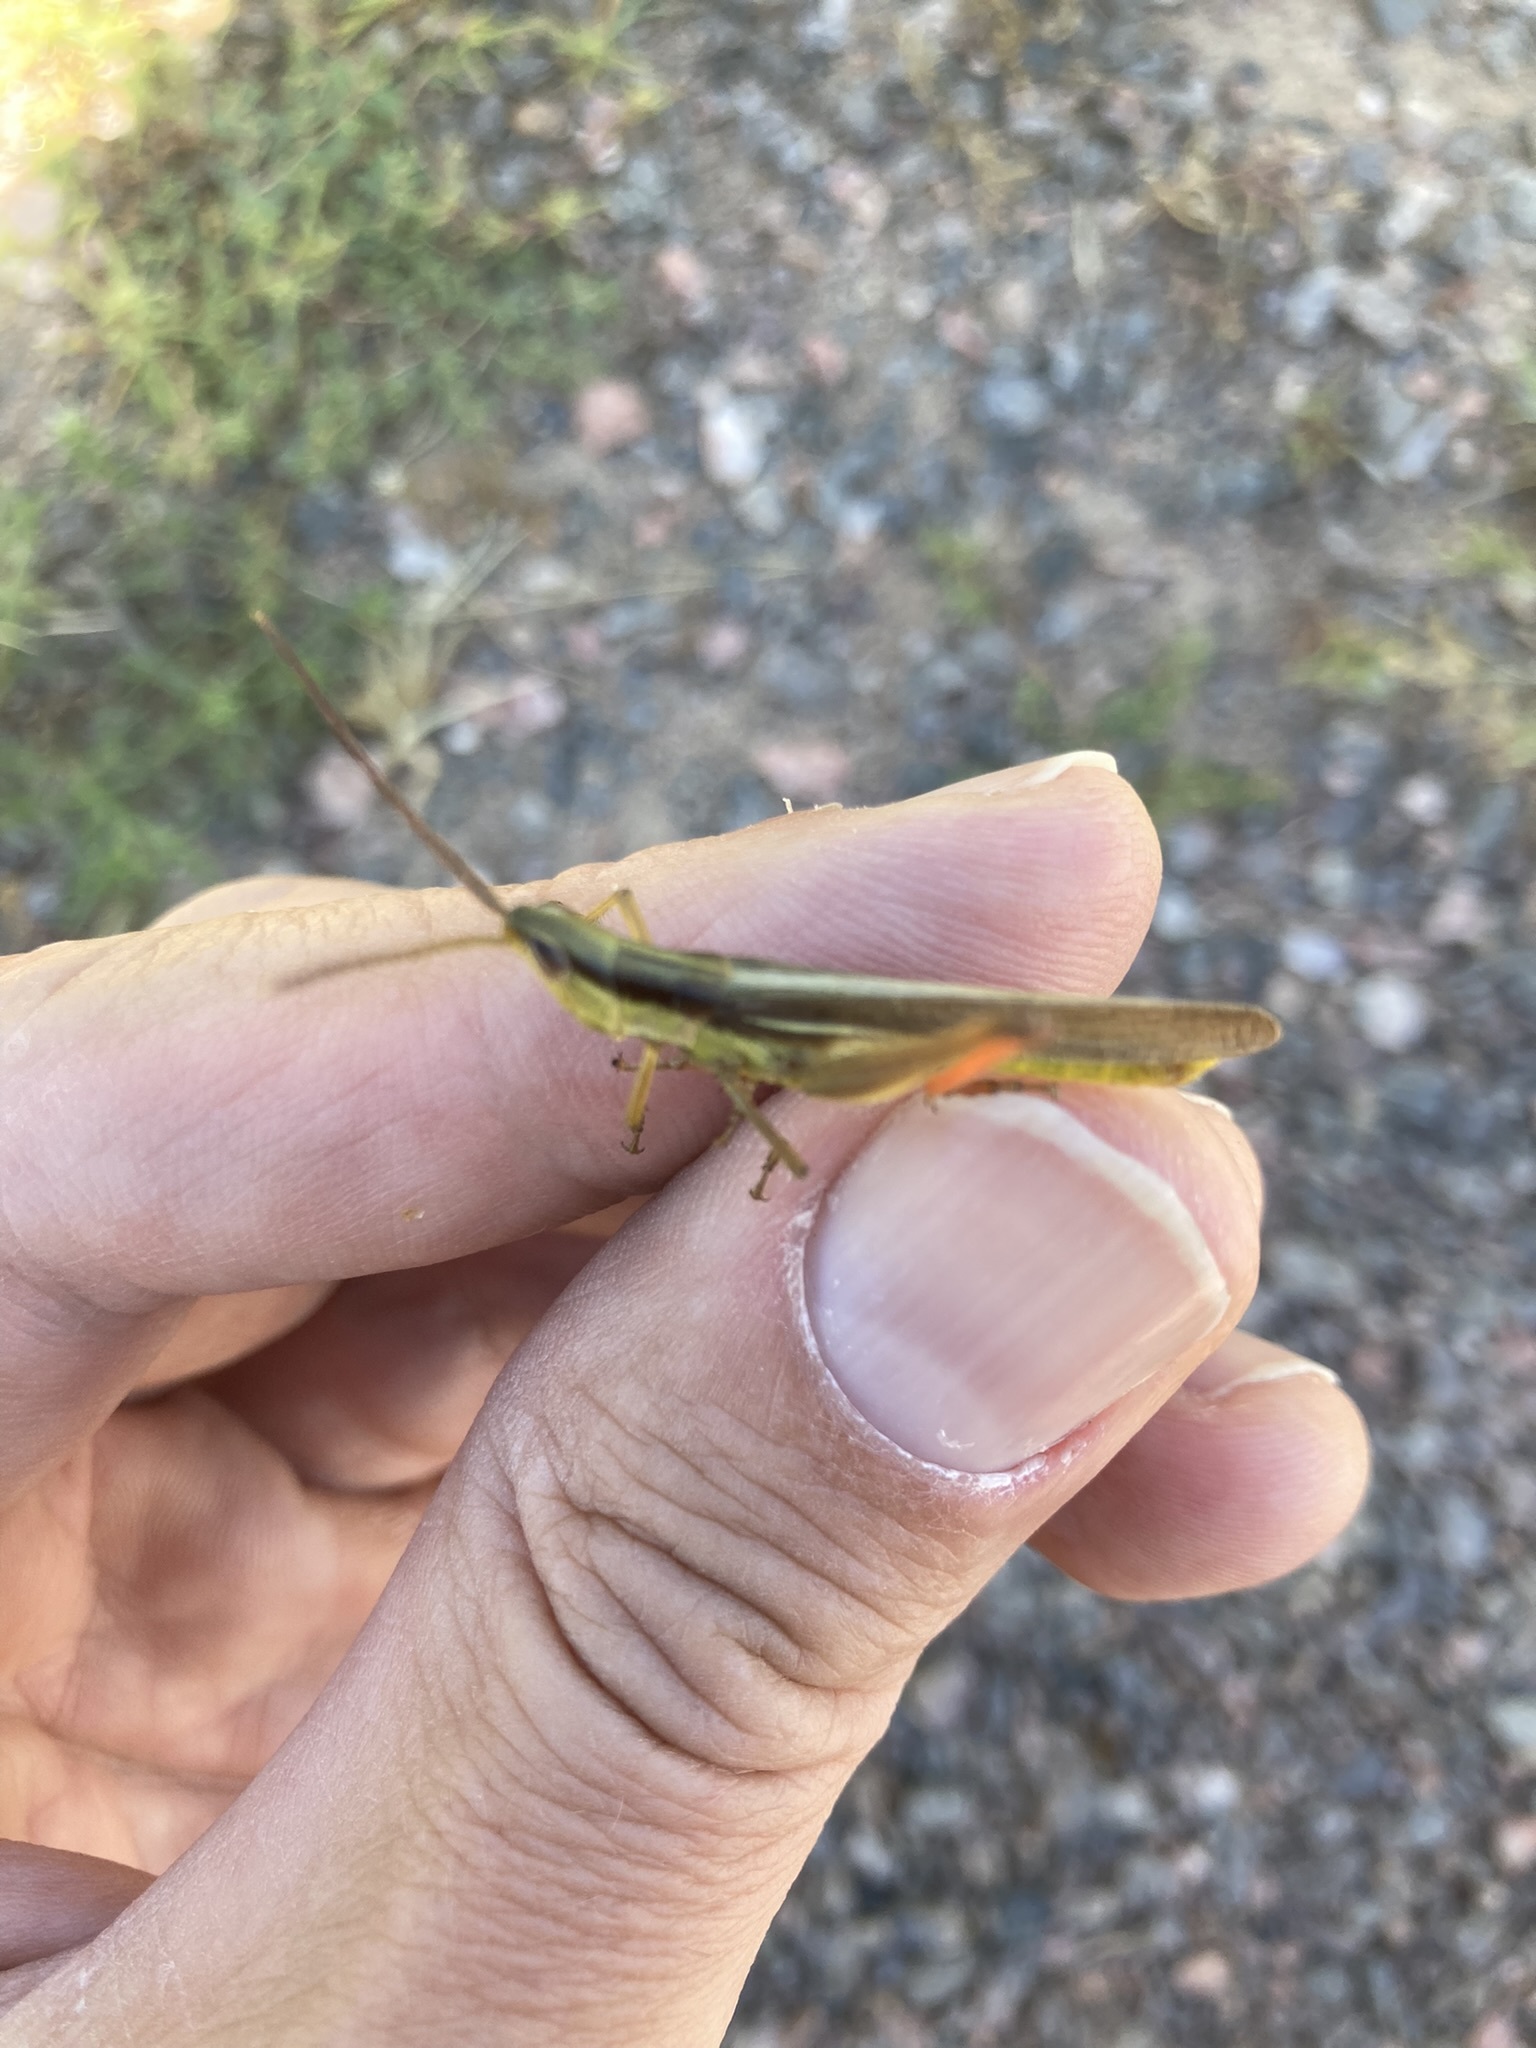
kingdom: Animalia
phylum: Arthropoda
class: Insecta
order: Orthoptera
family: Acrididae
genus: Mermiria
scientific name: Mermiria bivittata
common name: Two-striped mermiria grasshopper
